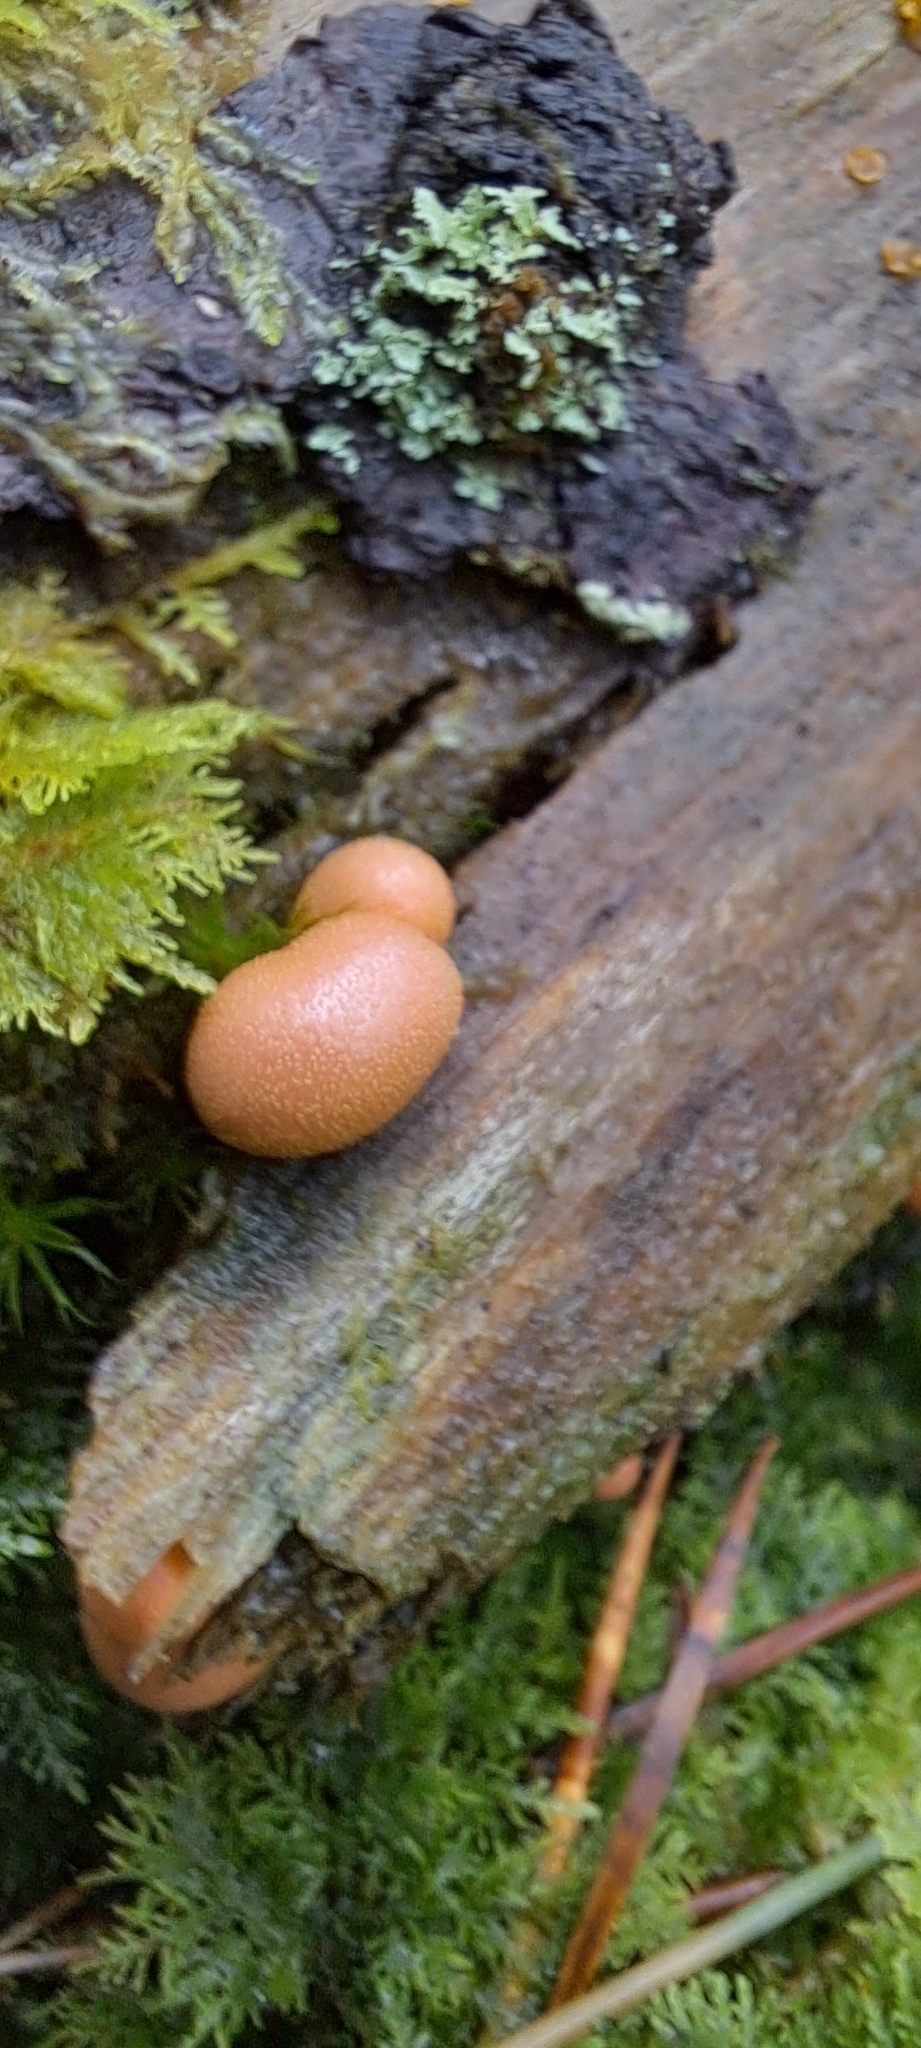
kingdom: Protozoa
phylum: Mycetozoa
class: Myxomycetes
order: Cribrariales
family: Tubiferaceae
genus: Lycogala
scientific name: Lycogala epidendrum
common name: Wolf's milk
